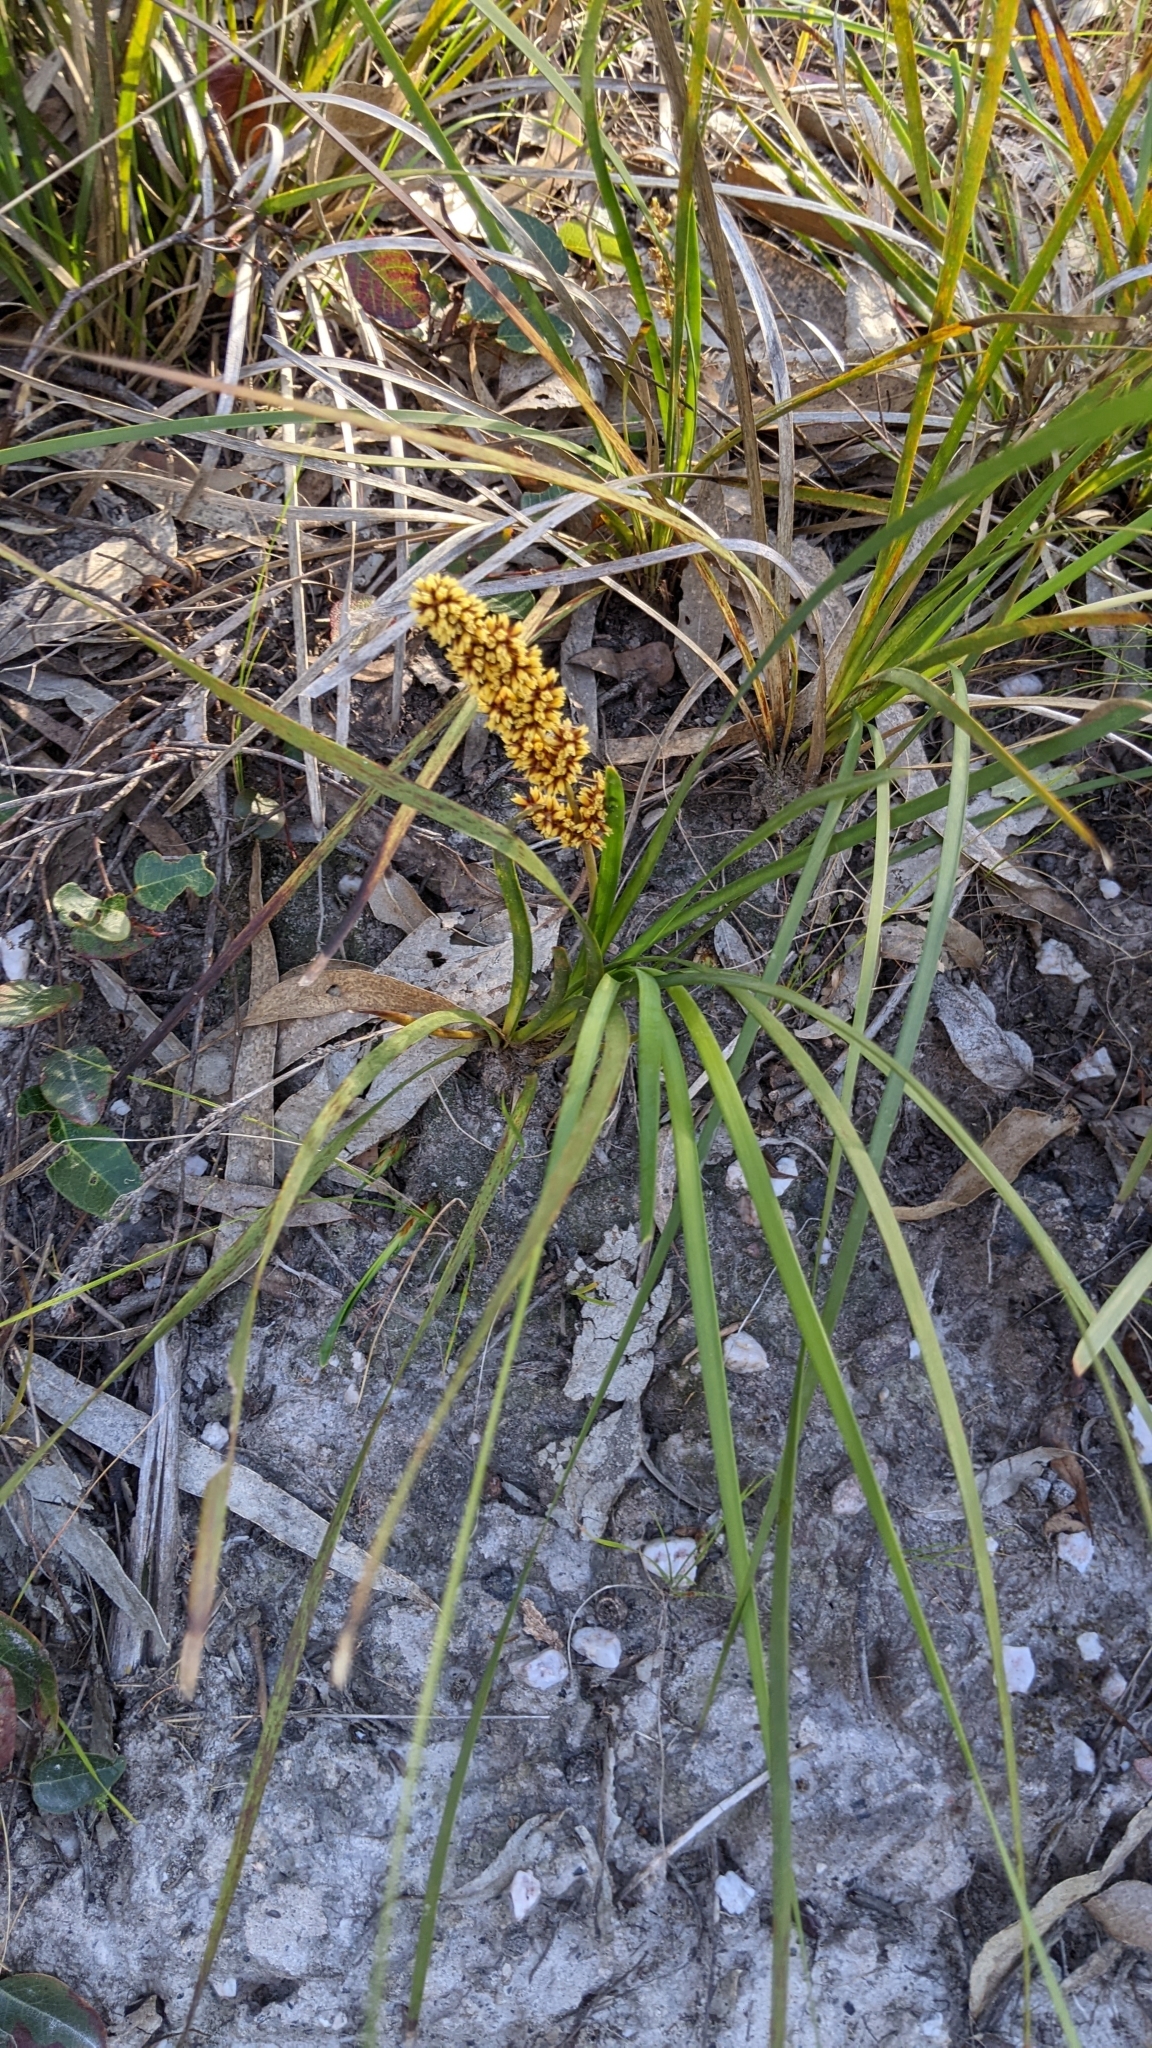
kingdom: Plantae
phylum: Tracheophyta
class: Liliopsida
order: Asparagales
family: Asparagaceae
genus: Lomandra
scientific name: Lomandra longifolia
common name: Longleaf mat-rush
